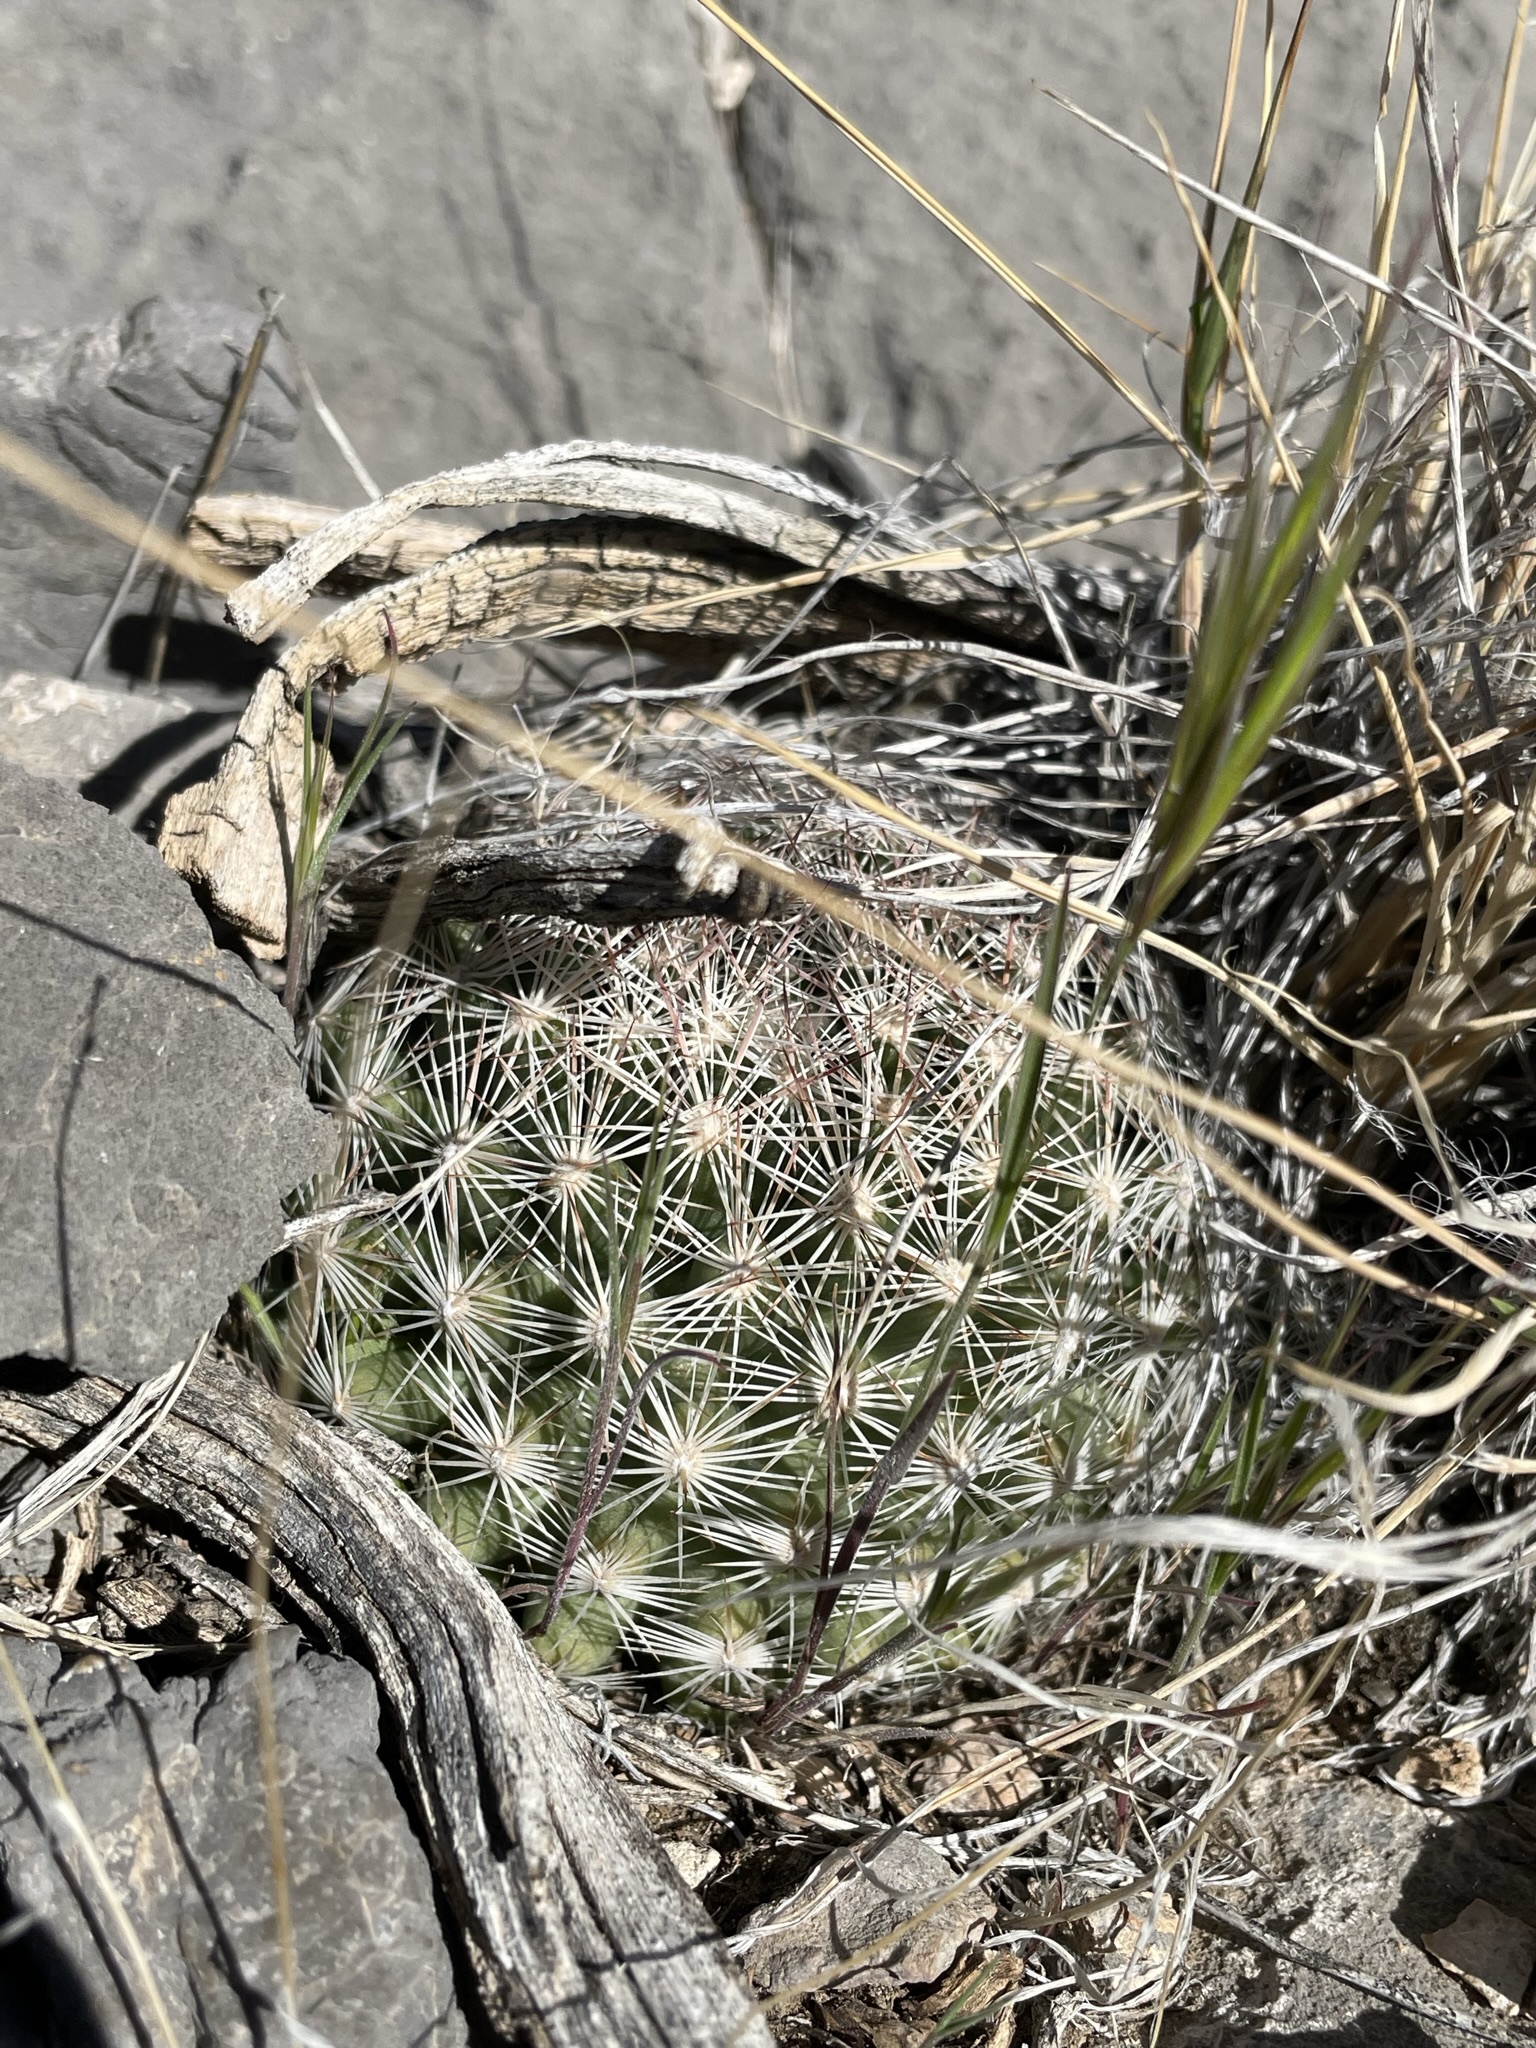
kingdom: Plantae
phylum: Tracheophyta
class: Magnoliopsida
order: Caryophyllales
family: Cactaceae
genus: Pelecyphora
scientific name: Pelecyphora vivipara
